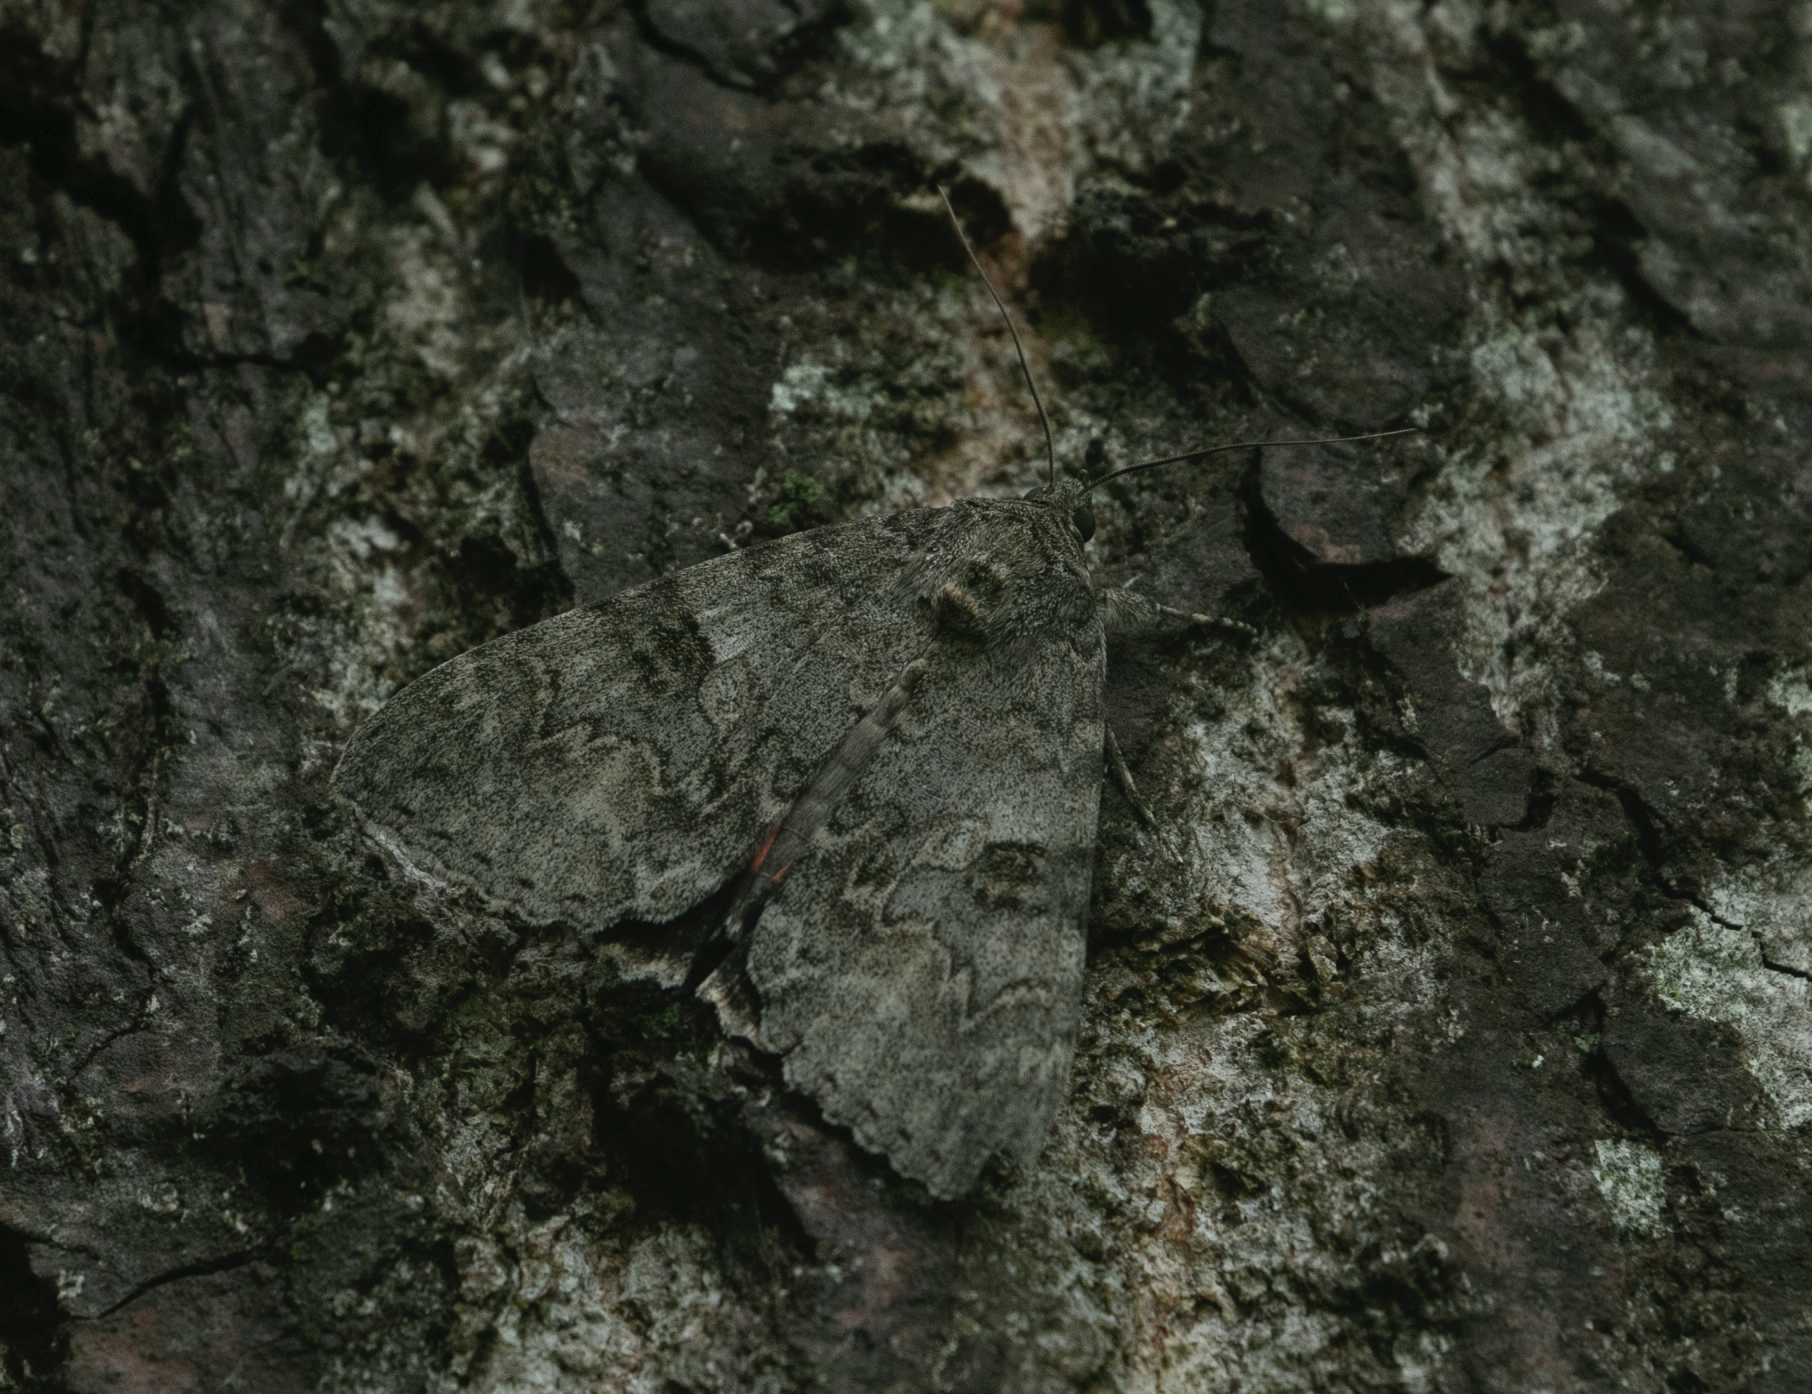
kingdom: Animalia
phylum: Arthropoda
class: Insecta
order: Lepidoptera
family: Erebidae
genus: Catocala
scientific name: Catocala nupta
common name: Red underwing
